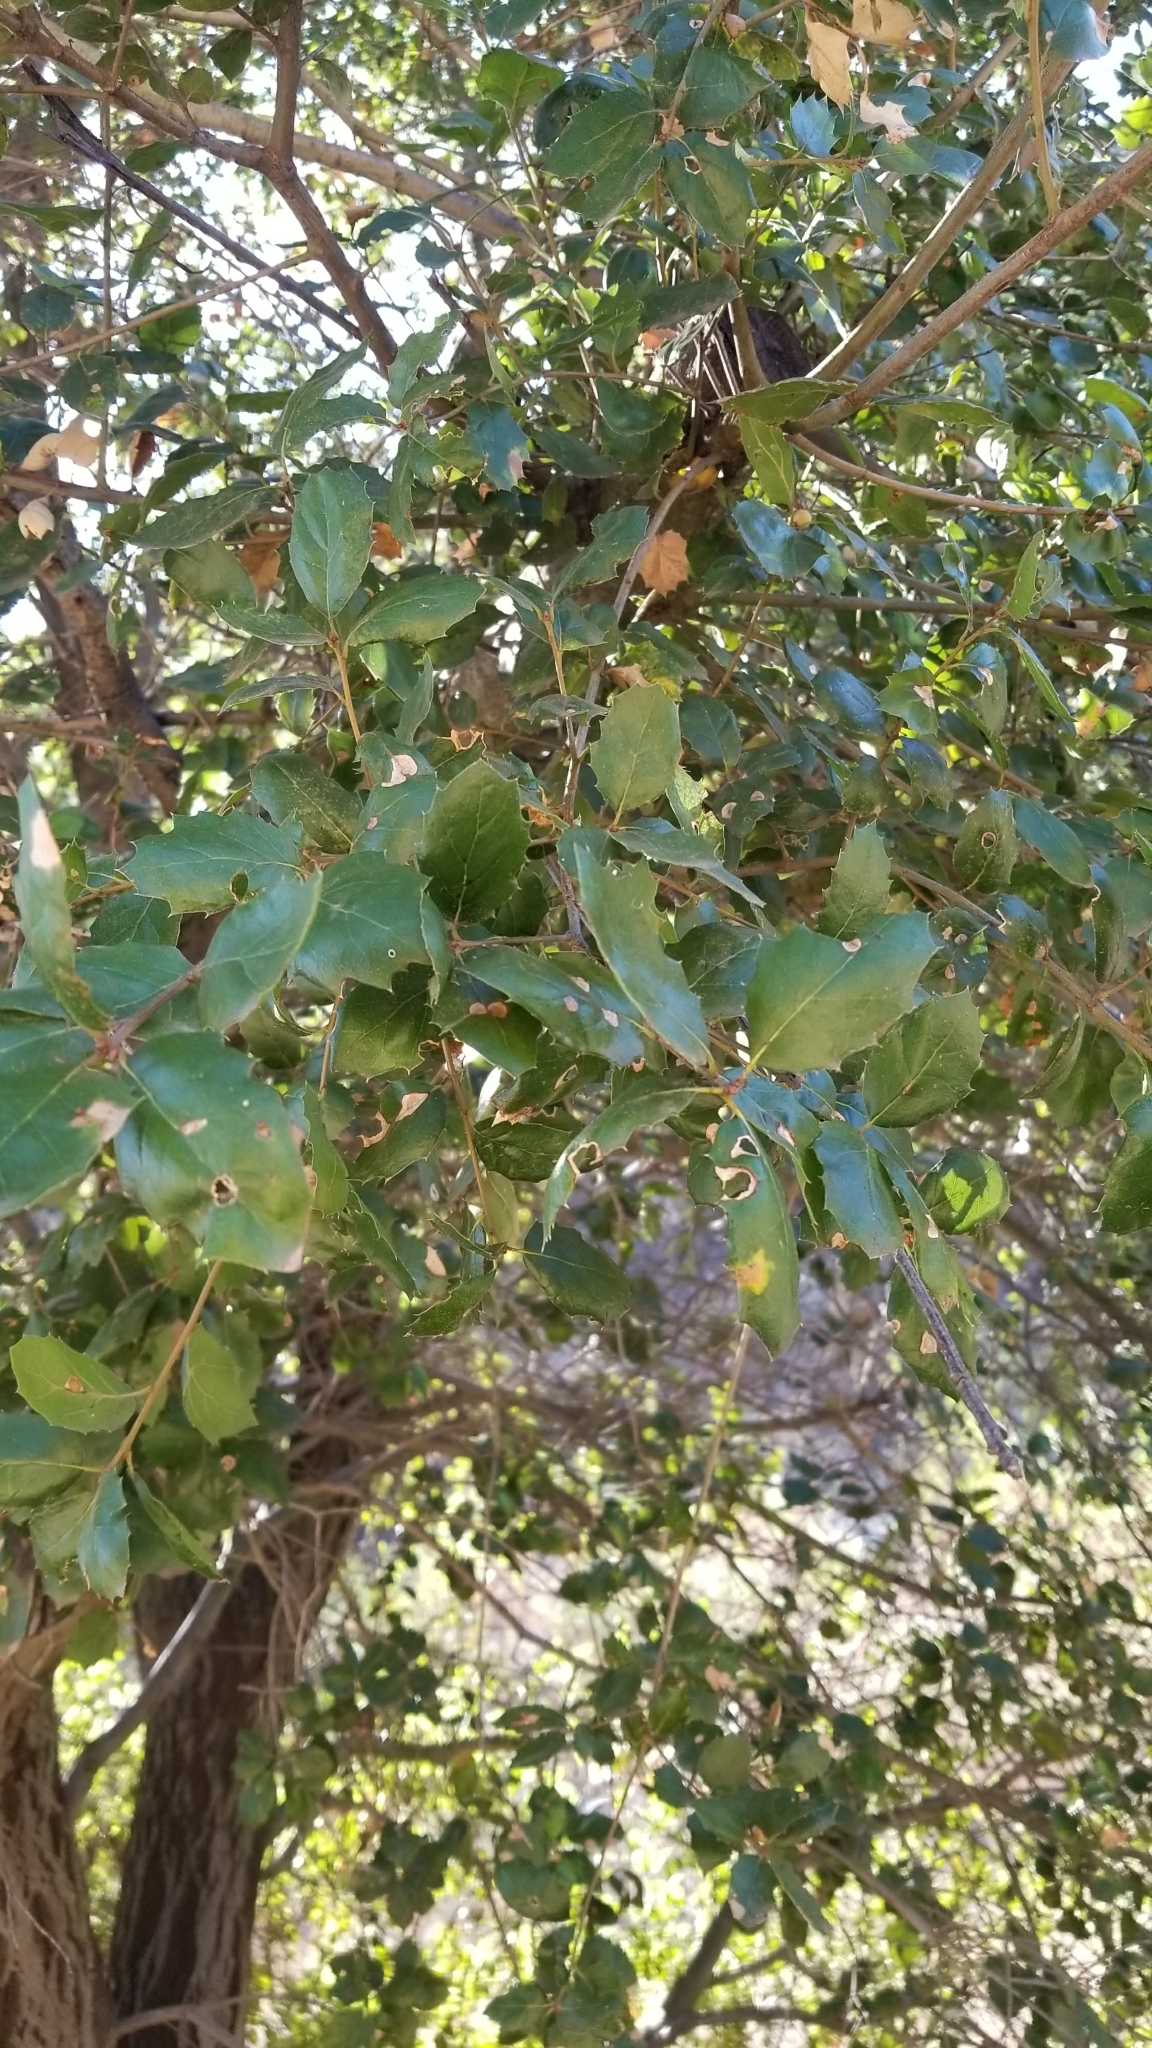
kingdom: Plantae
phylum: Tracheophyta
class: Magnoliopsida
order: Fagales
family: Fagaceae
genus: Quercus
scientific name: Quercus agrifolia
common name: California live oak
